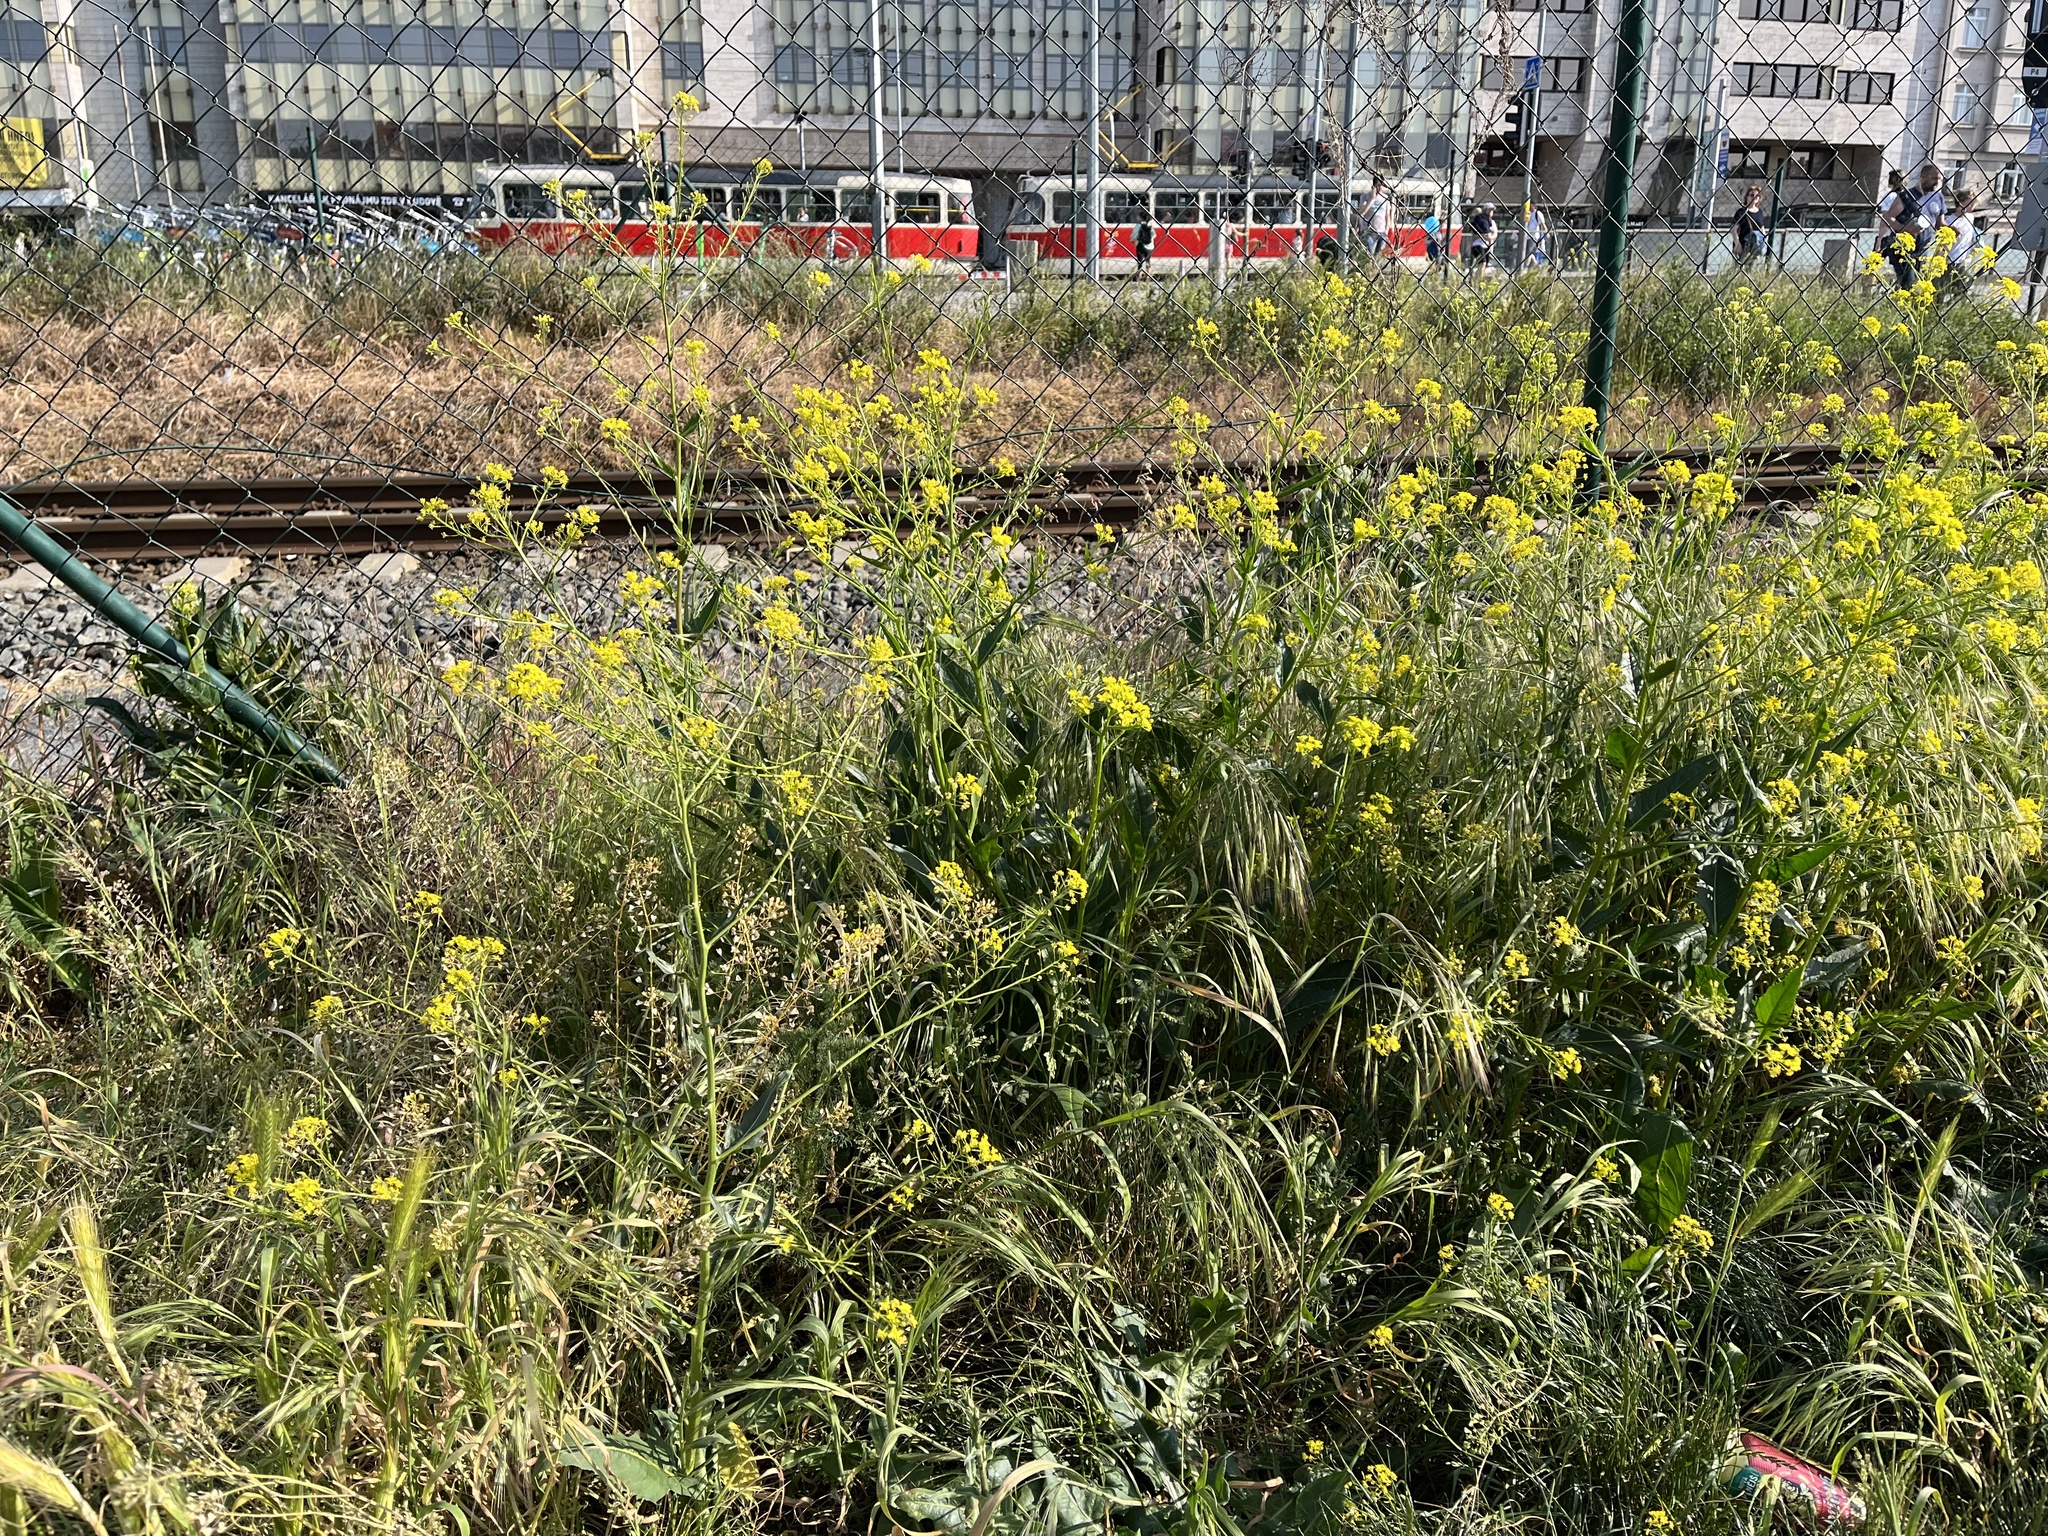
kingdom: Plantae
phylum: Tracheophyta
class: Magnoliopsida
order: Brassicales
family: Brassicaceae
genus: Bunias
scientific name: Bunias orientalis
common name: Warty-cabbage
